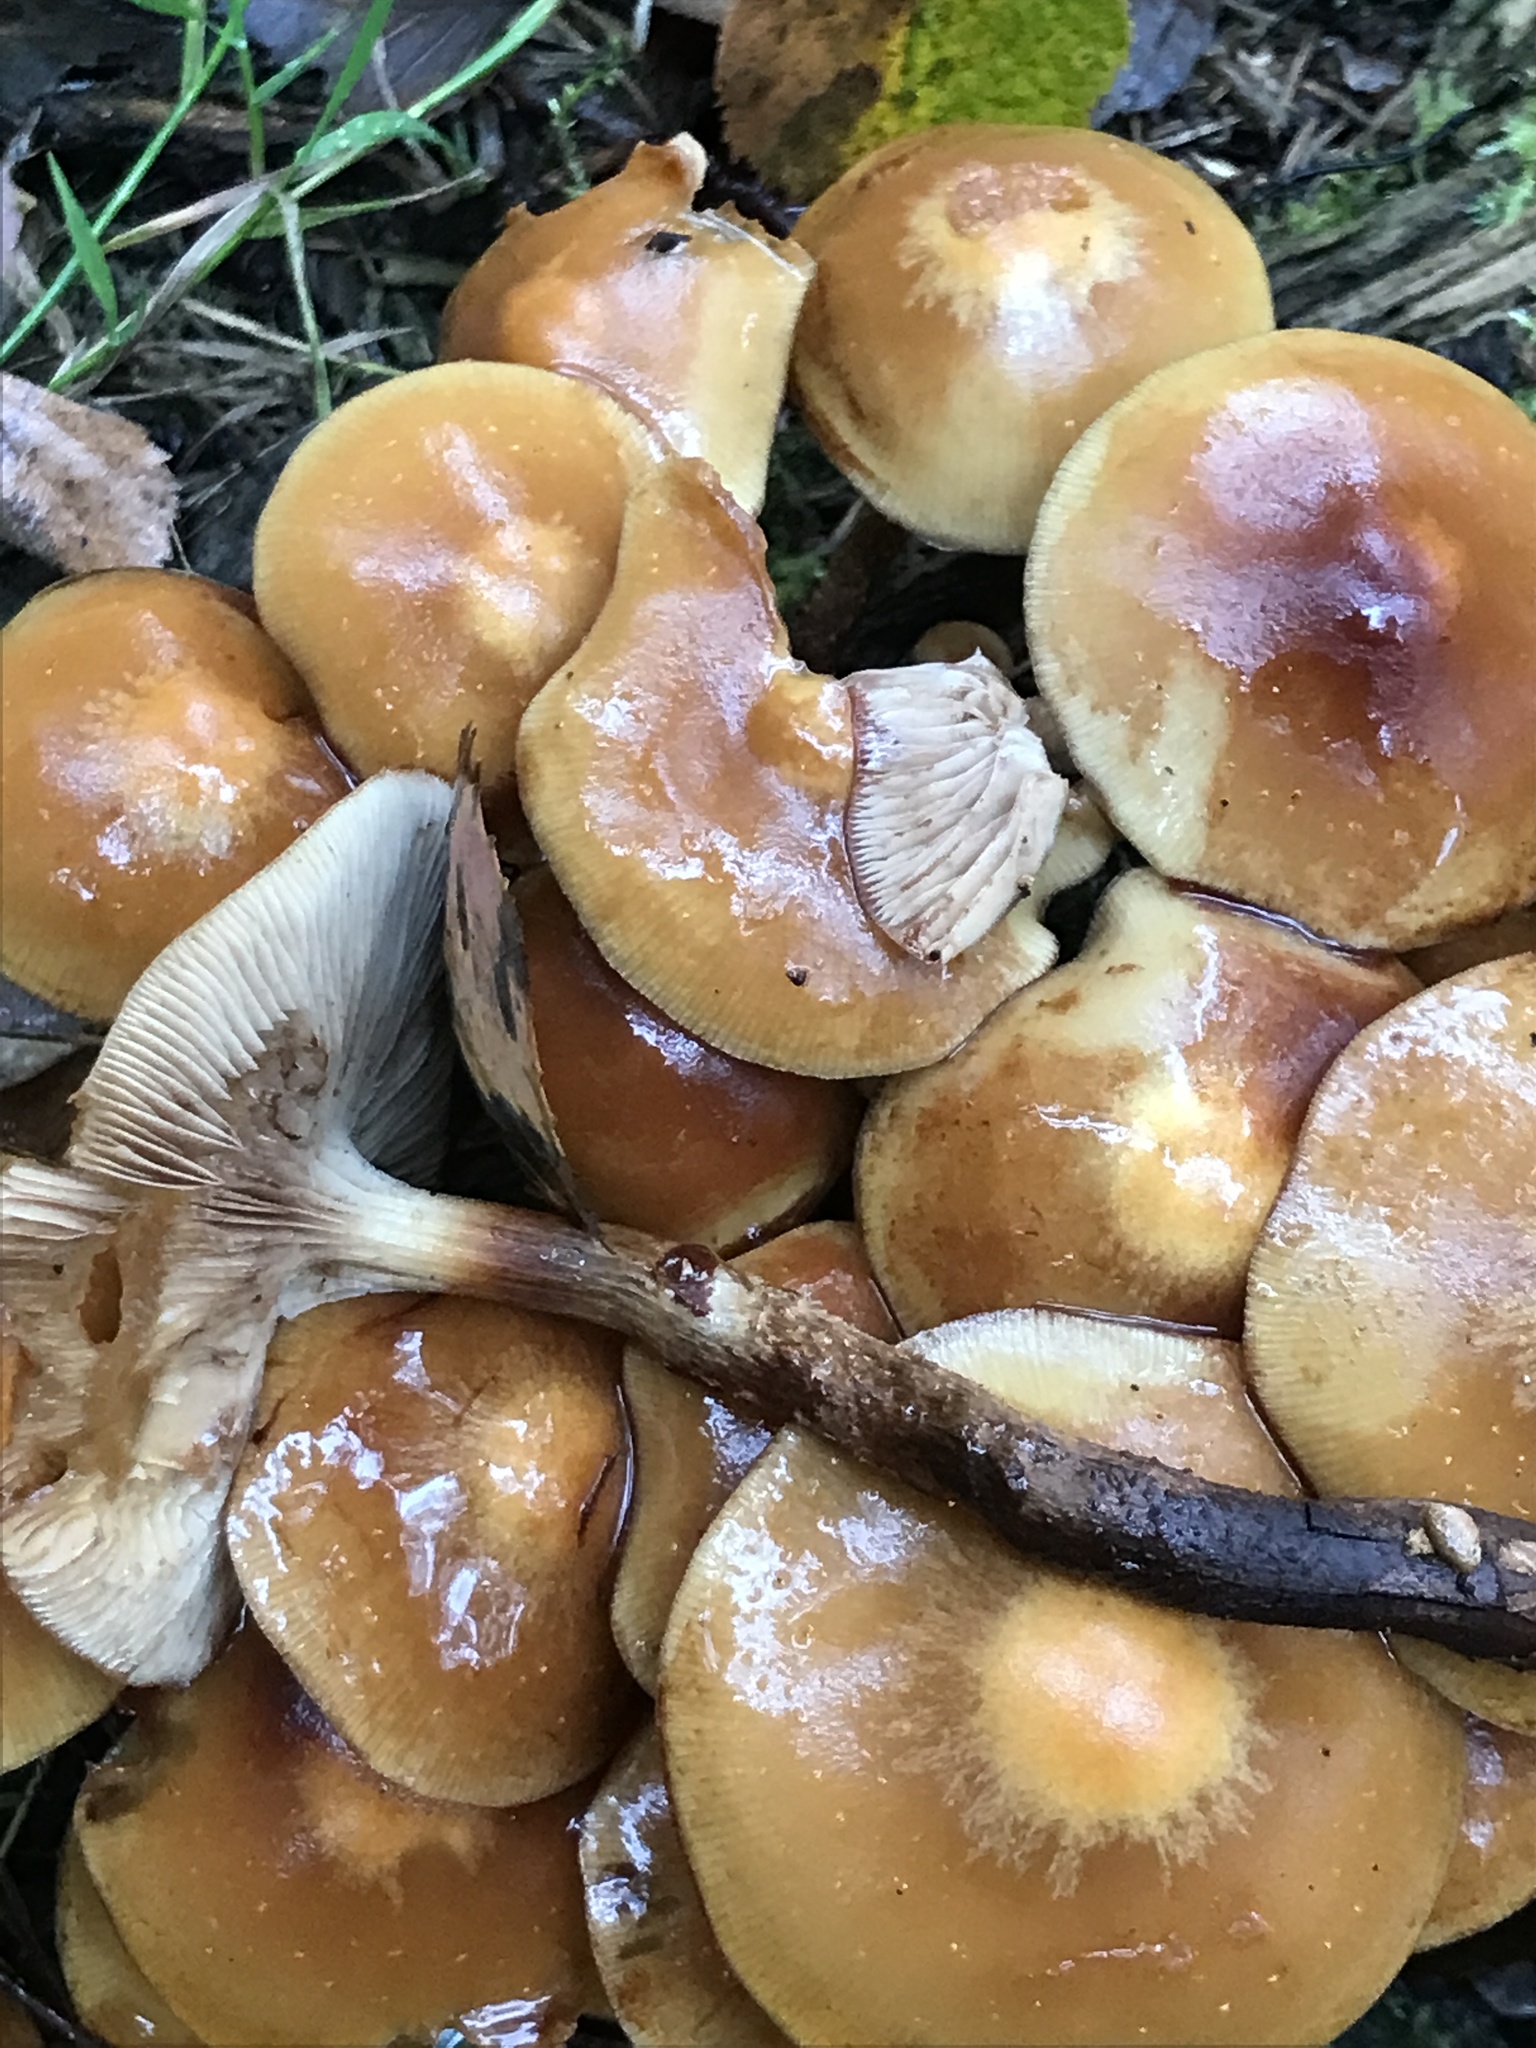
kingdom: Fungi
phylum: Basidiomycota
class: Agaricomycetes
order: Agaricales
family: Strophariaceae
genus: Kuehneromyces
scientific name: Kuehneromyces mutabilis
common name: Sheathed woodtuft
